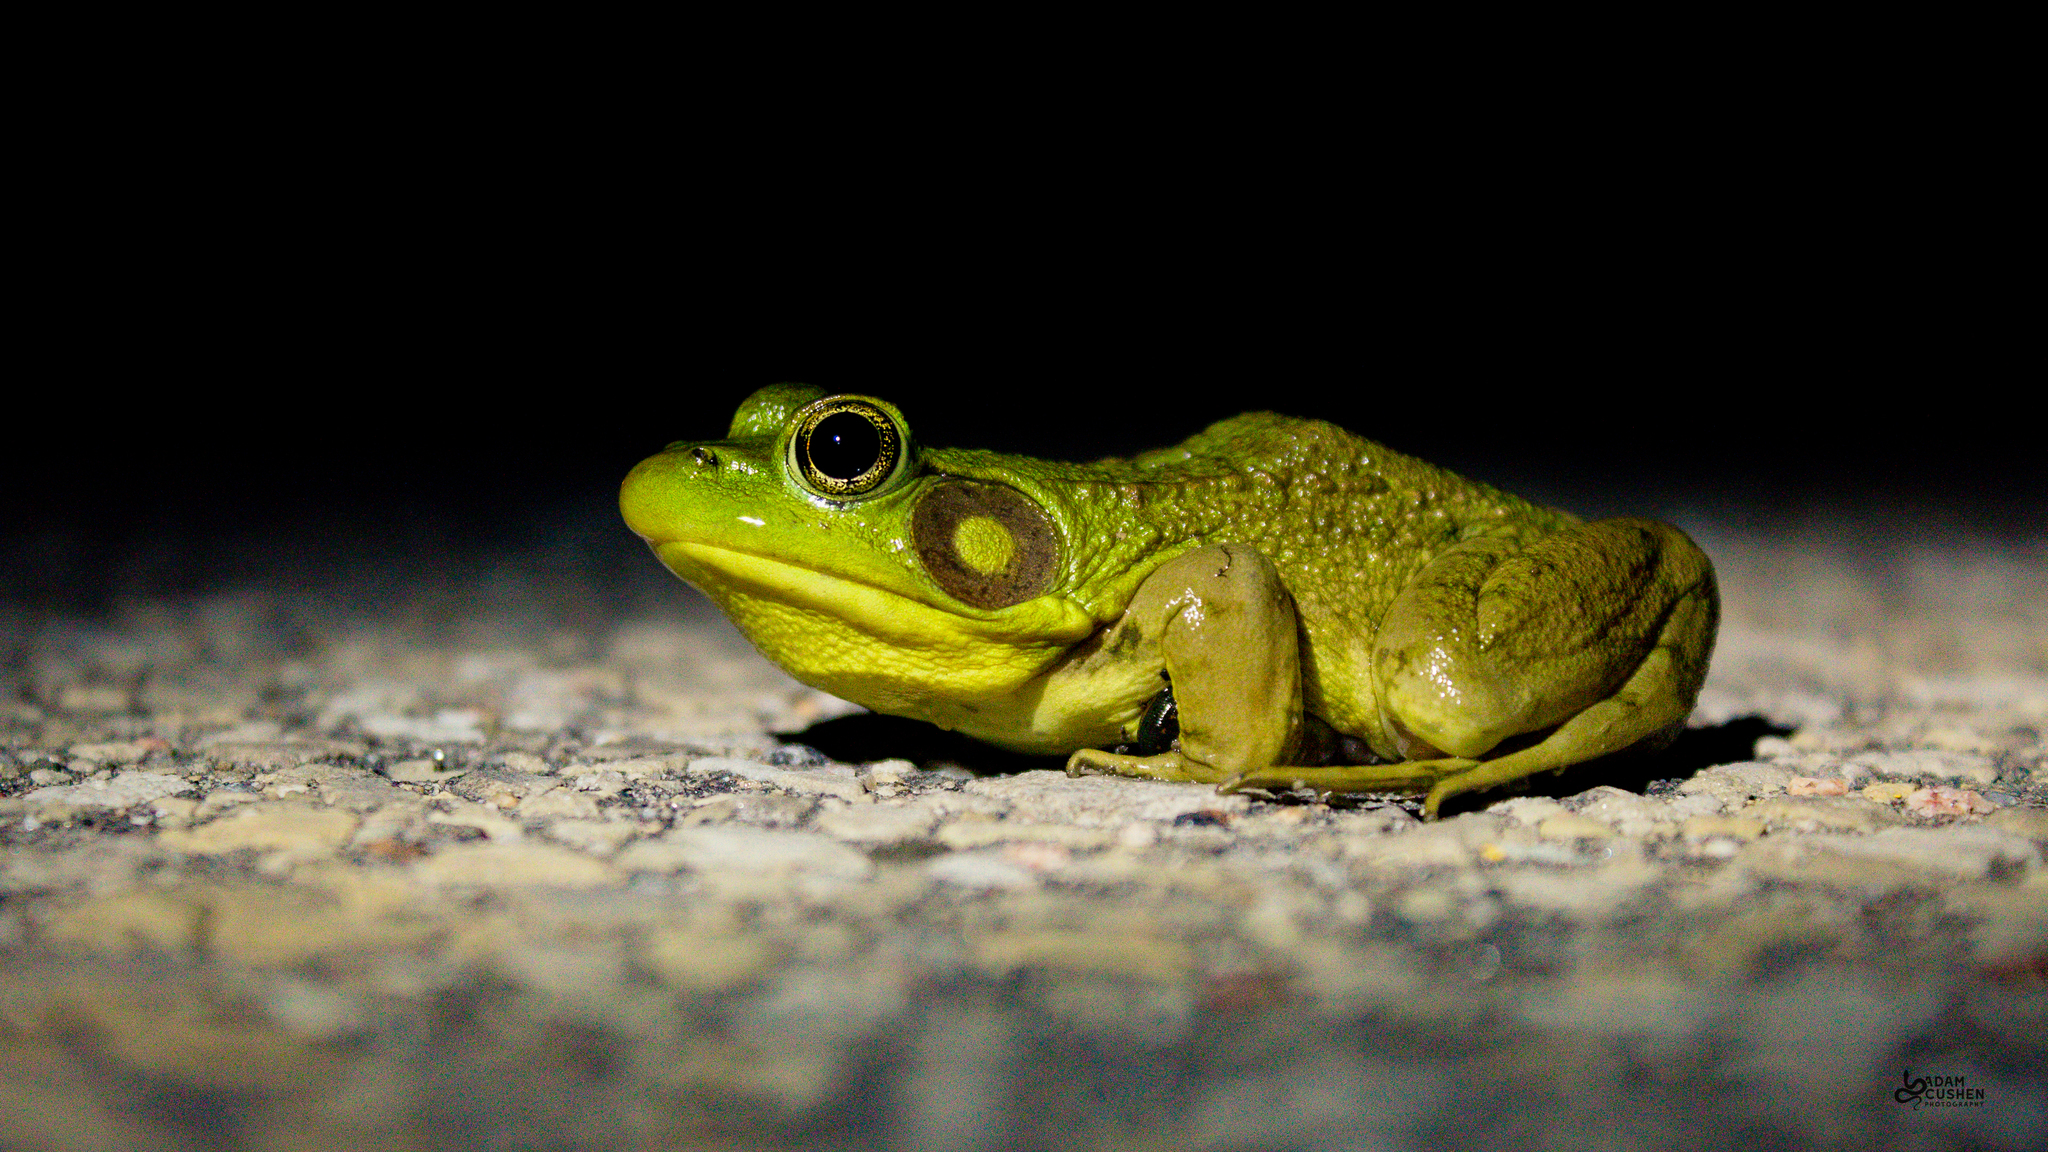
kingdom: Animalia
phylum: Chordata
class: Amphibia
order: Anura
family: Ranidae
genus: Lithobates
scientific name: Lithobates clamitans
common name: Green frog
